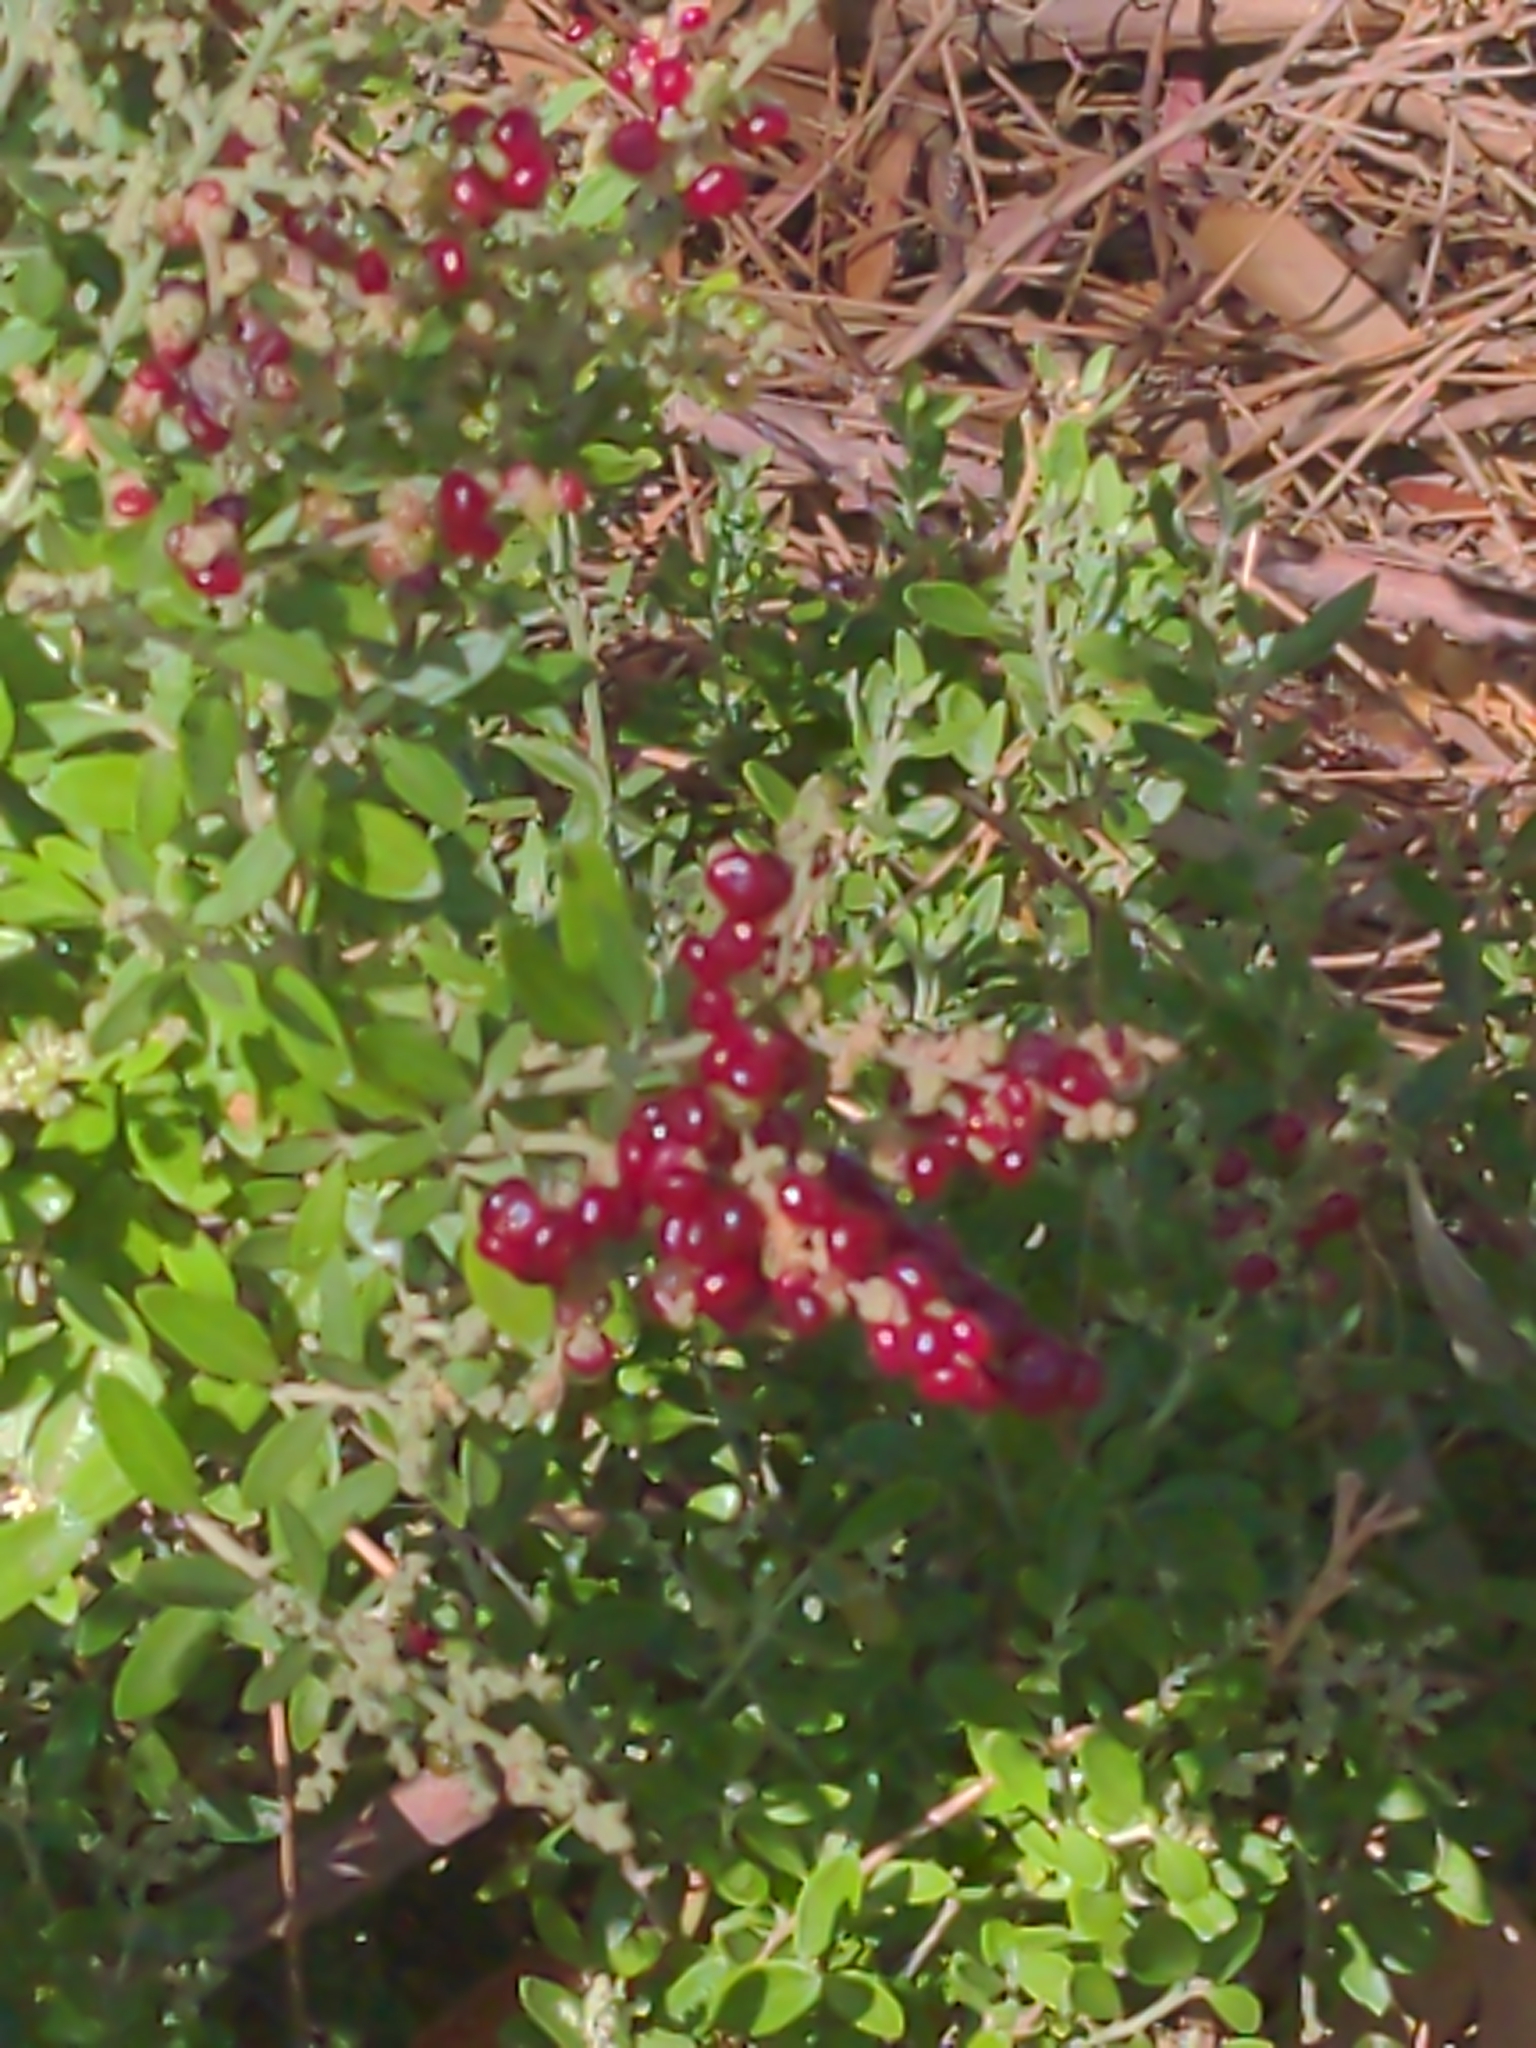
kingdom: Plantae
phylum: Tracheophyta
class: Magnoliopsida
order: Caryophyllales
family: Amaranthaceae
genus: Chenopodium
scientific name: Chenopodium candolleanum
